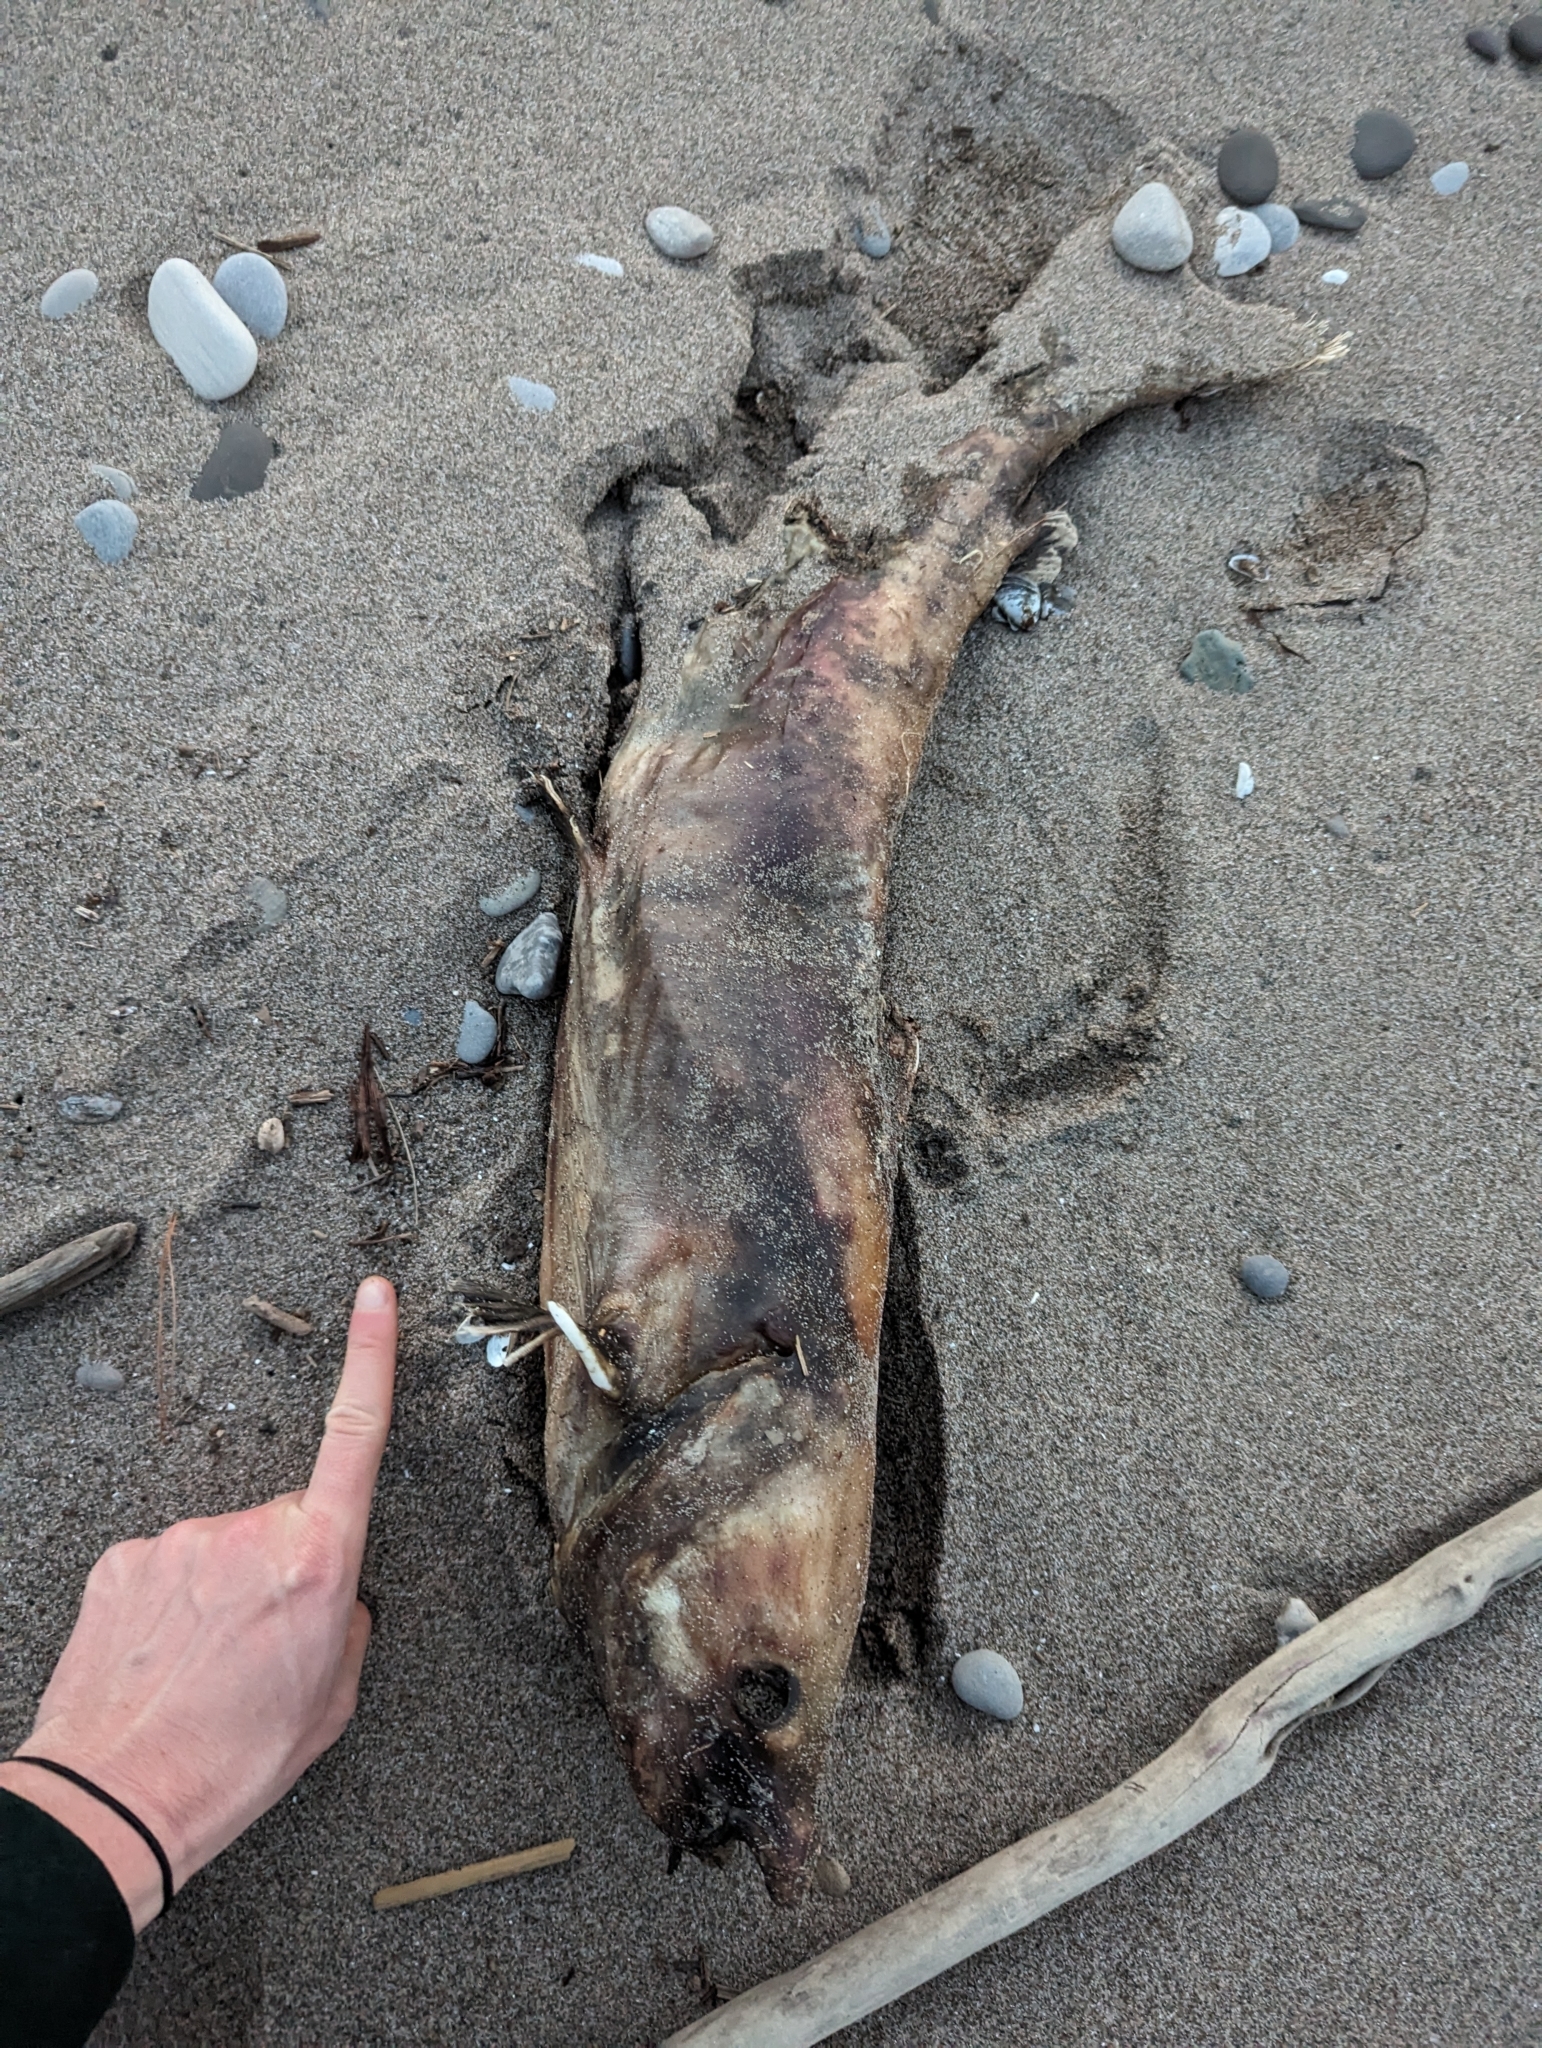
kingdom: Animalia
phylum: Chordata
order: Siluriformes
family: Ictaluridae
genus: Ictalurus
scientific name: Ictalurus punctatus
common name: Channel catfish
